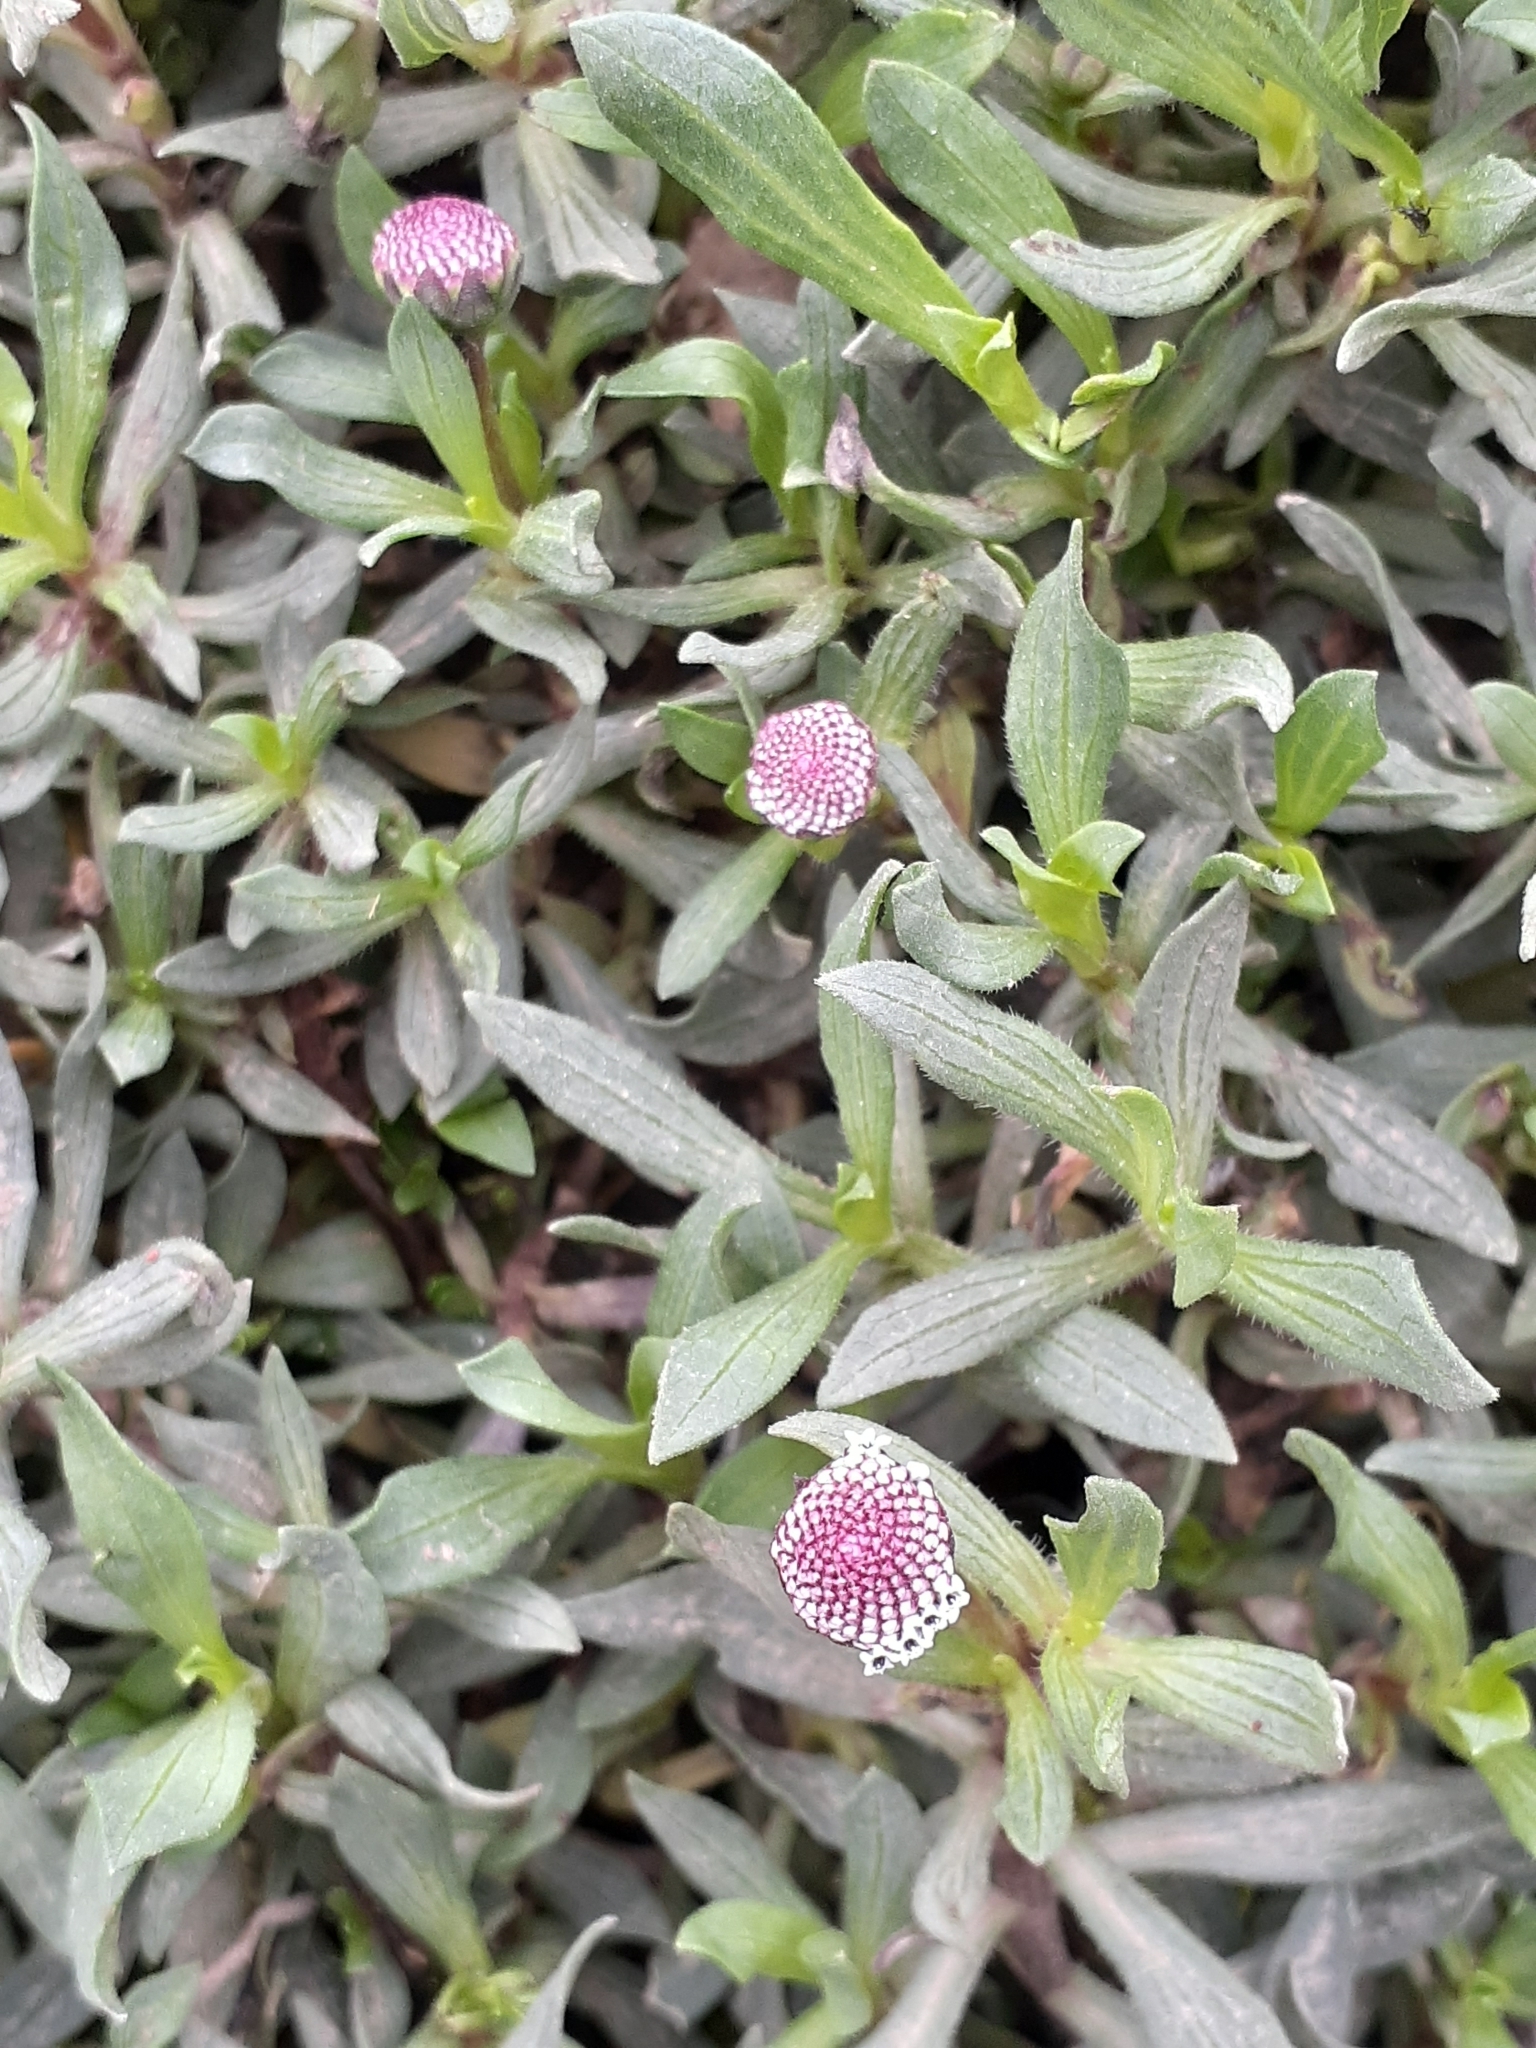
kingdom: Plantae
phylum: Tracheophyta
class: Magnoliopsida
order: Asterales
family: Asteraceae
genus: Spilanthes
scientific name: Spilanthes leiocarpa
